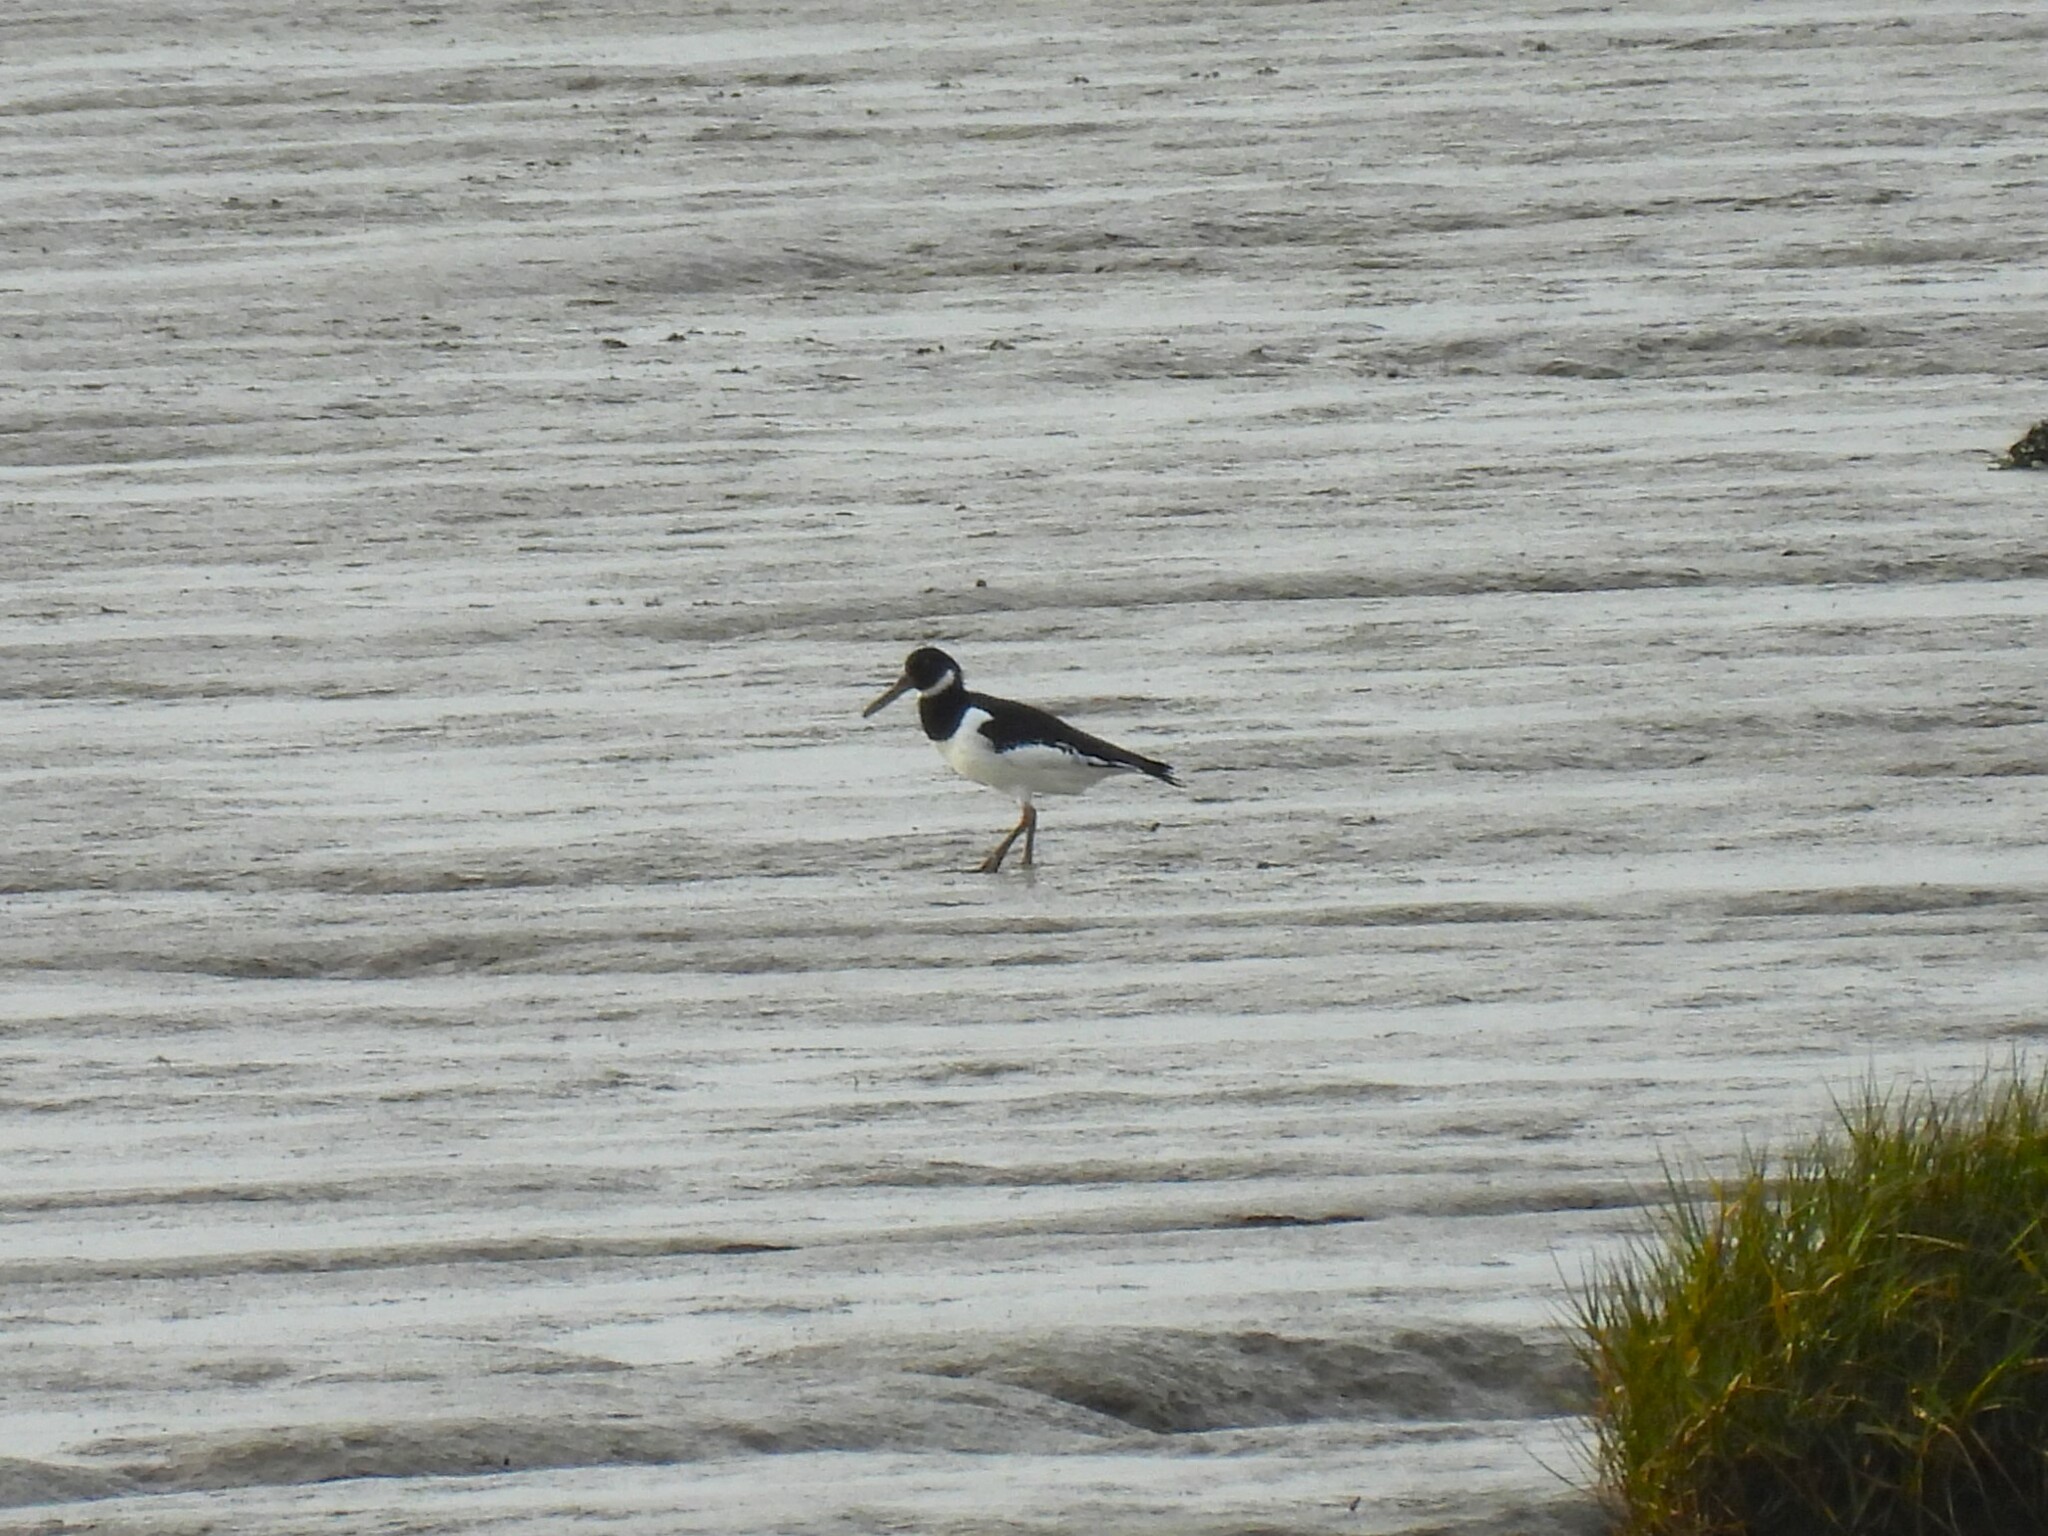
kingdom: Animalia
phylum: Chordata
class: Aves
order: Charadriiformes
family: Haematopodidae
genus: Haematopus
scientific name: Haematopus ostralegus
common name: Eurasian oystercatcher
